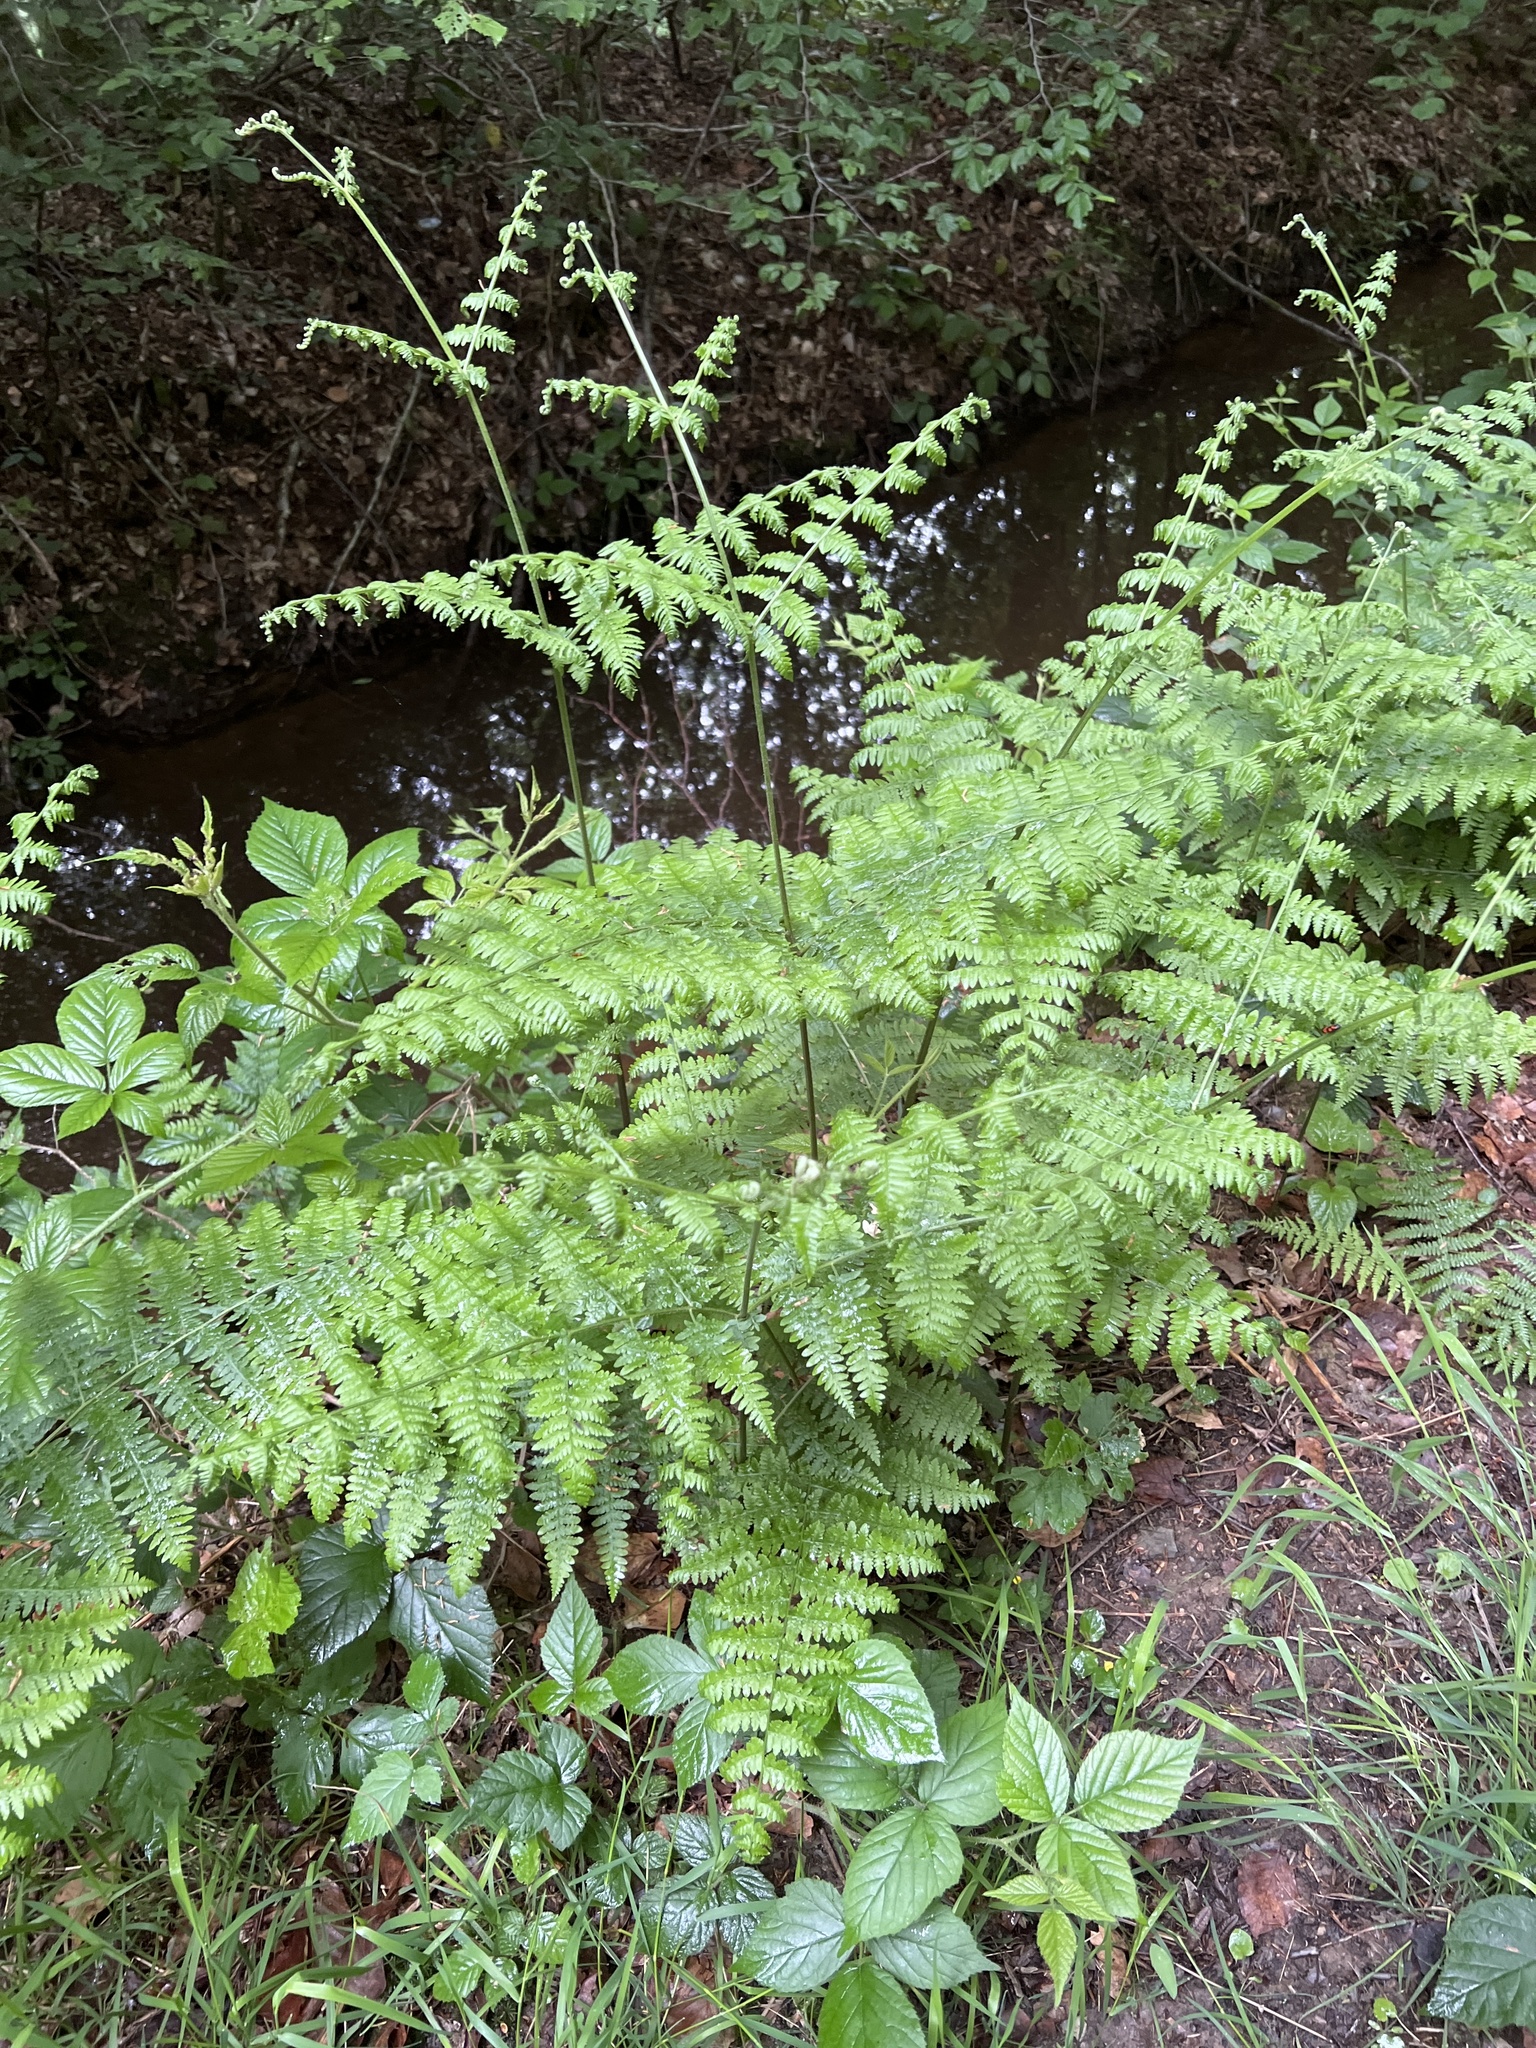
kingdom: Plantae
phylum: Tracheophyta
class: Polypodiopsida
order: Polypodiales
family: Dennstaedtiaceae
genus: Pteridium
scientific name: Pteridium aquilinum
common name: Bracken
